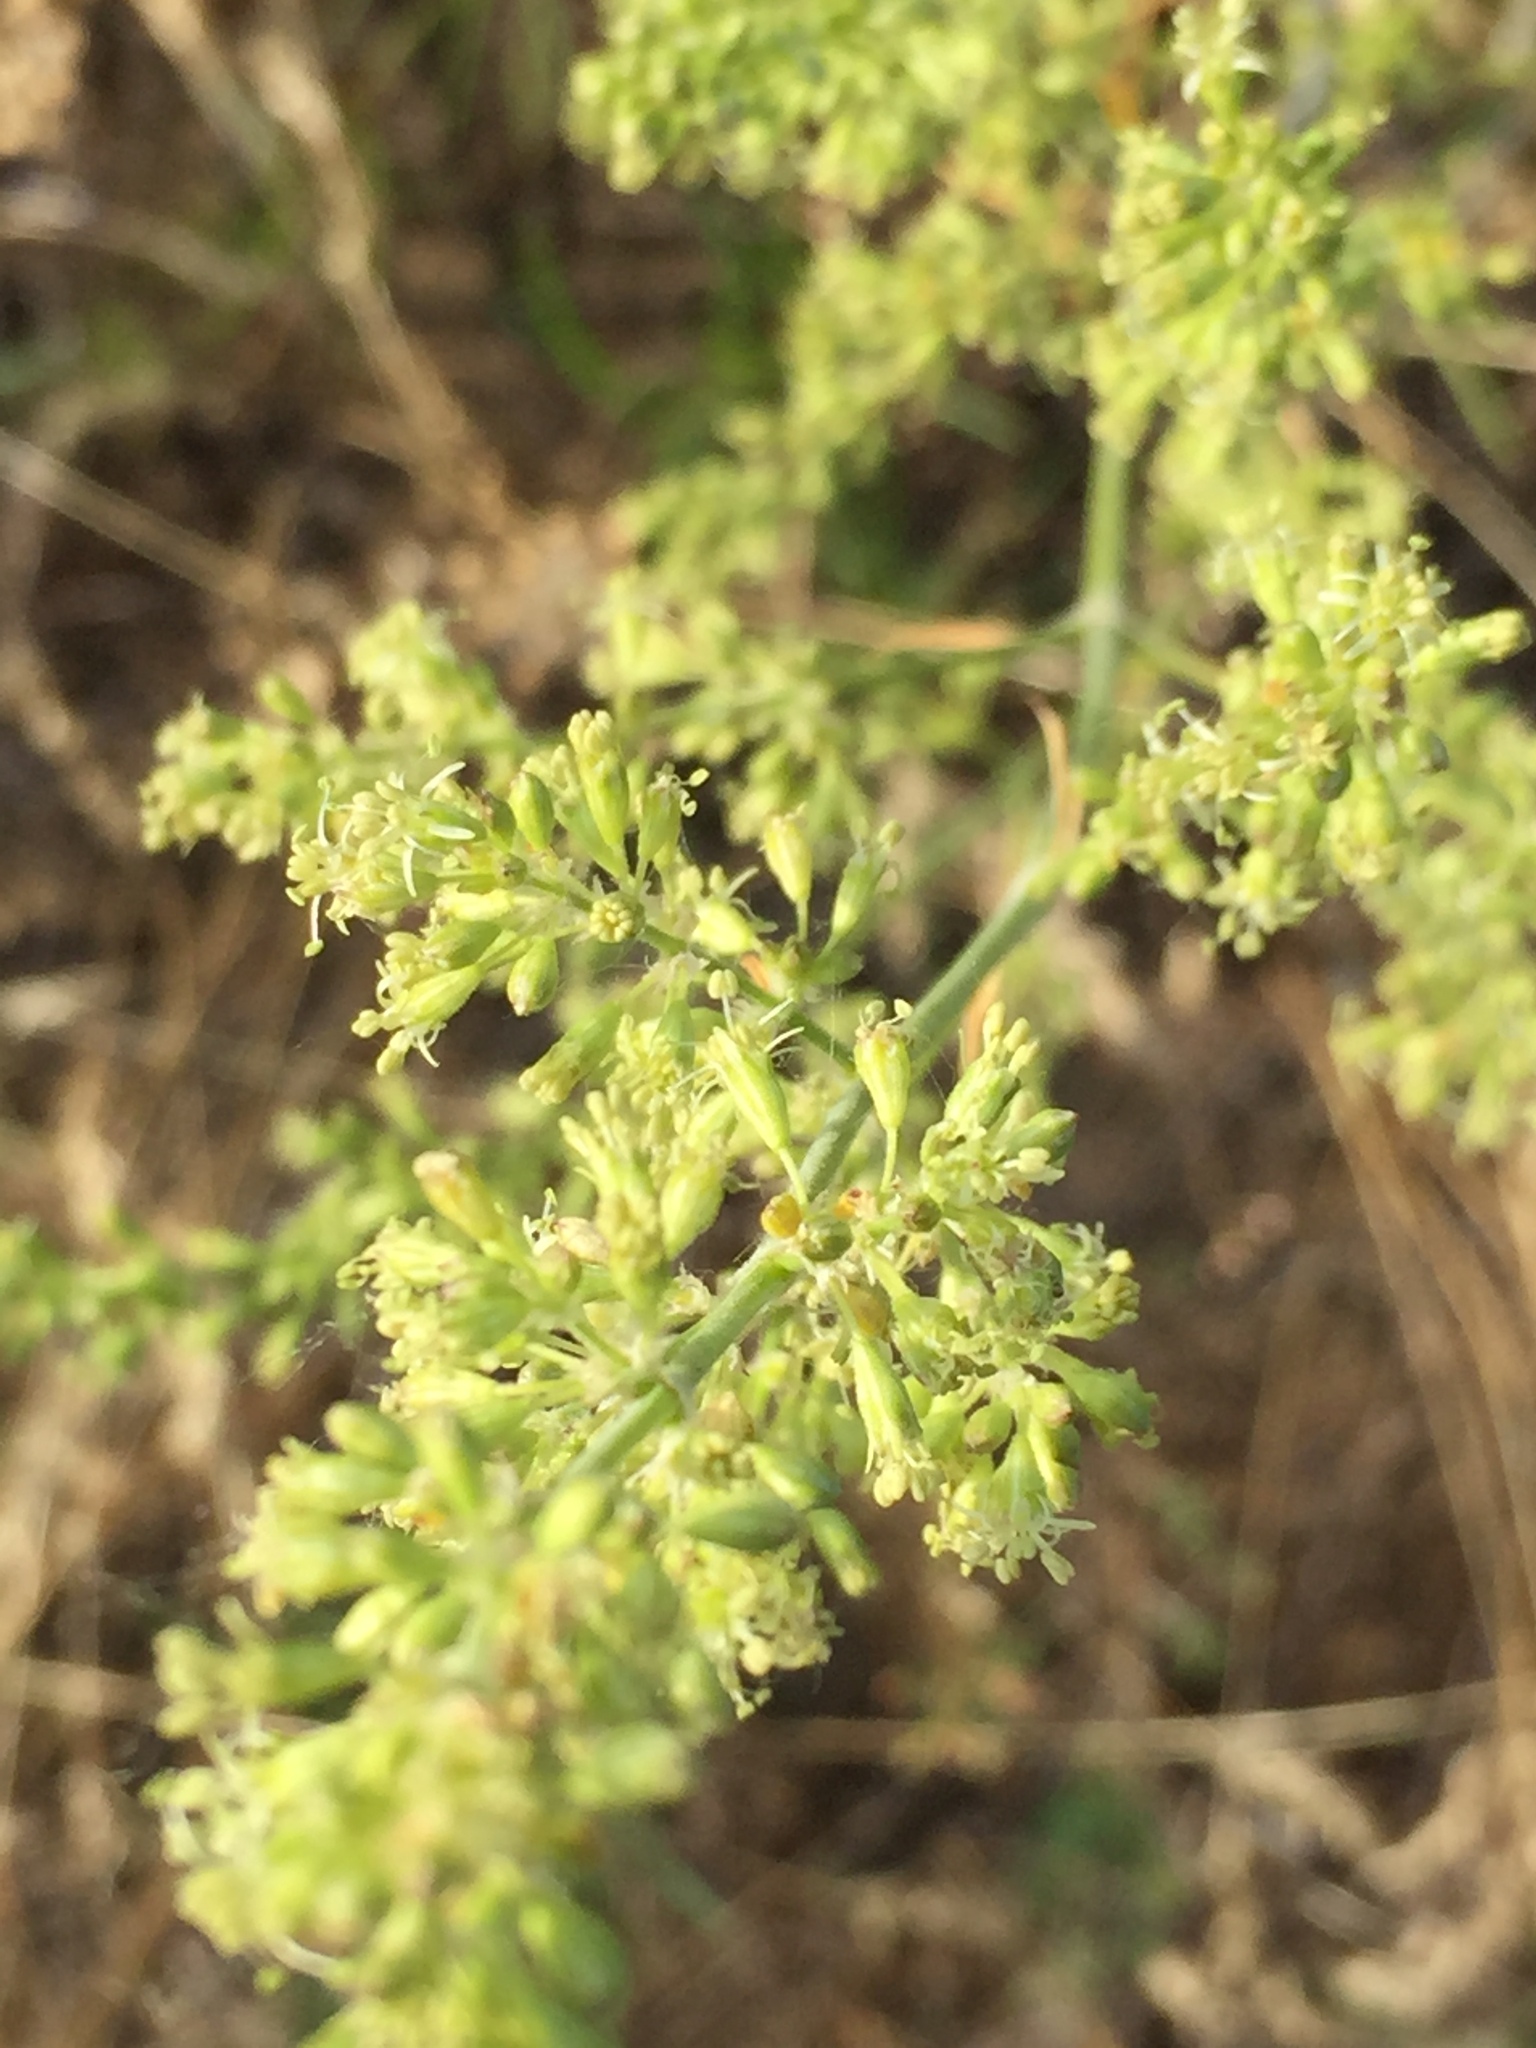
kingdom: Plantae
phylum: Tracheophyta
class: Magnoliopsida
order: Caryophyllales
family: Caryophyllaceae
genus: Silene
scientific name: Silene borysthenica
